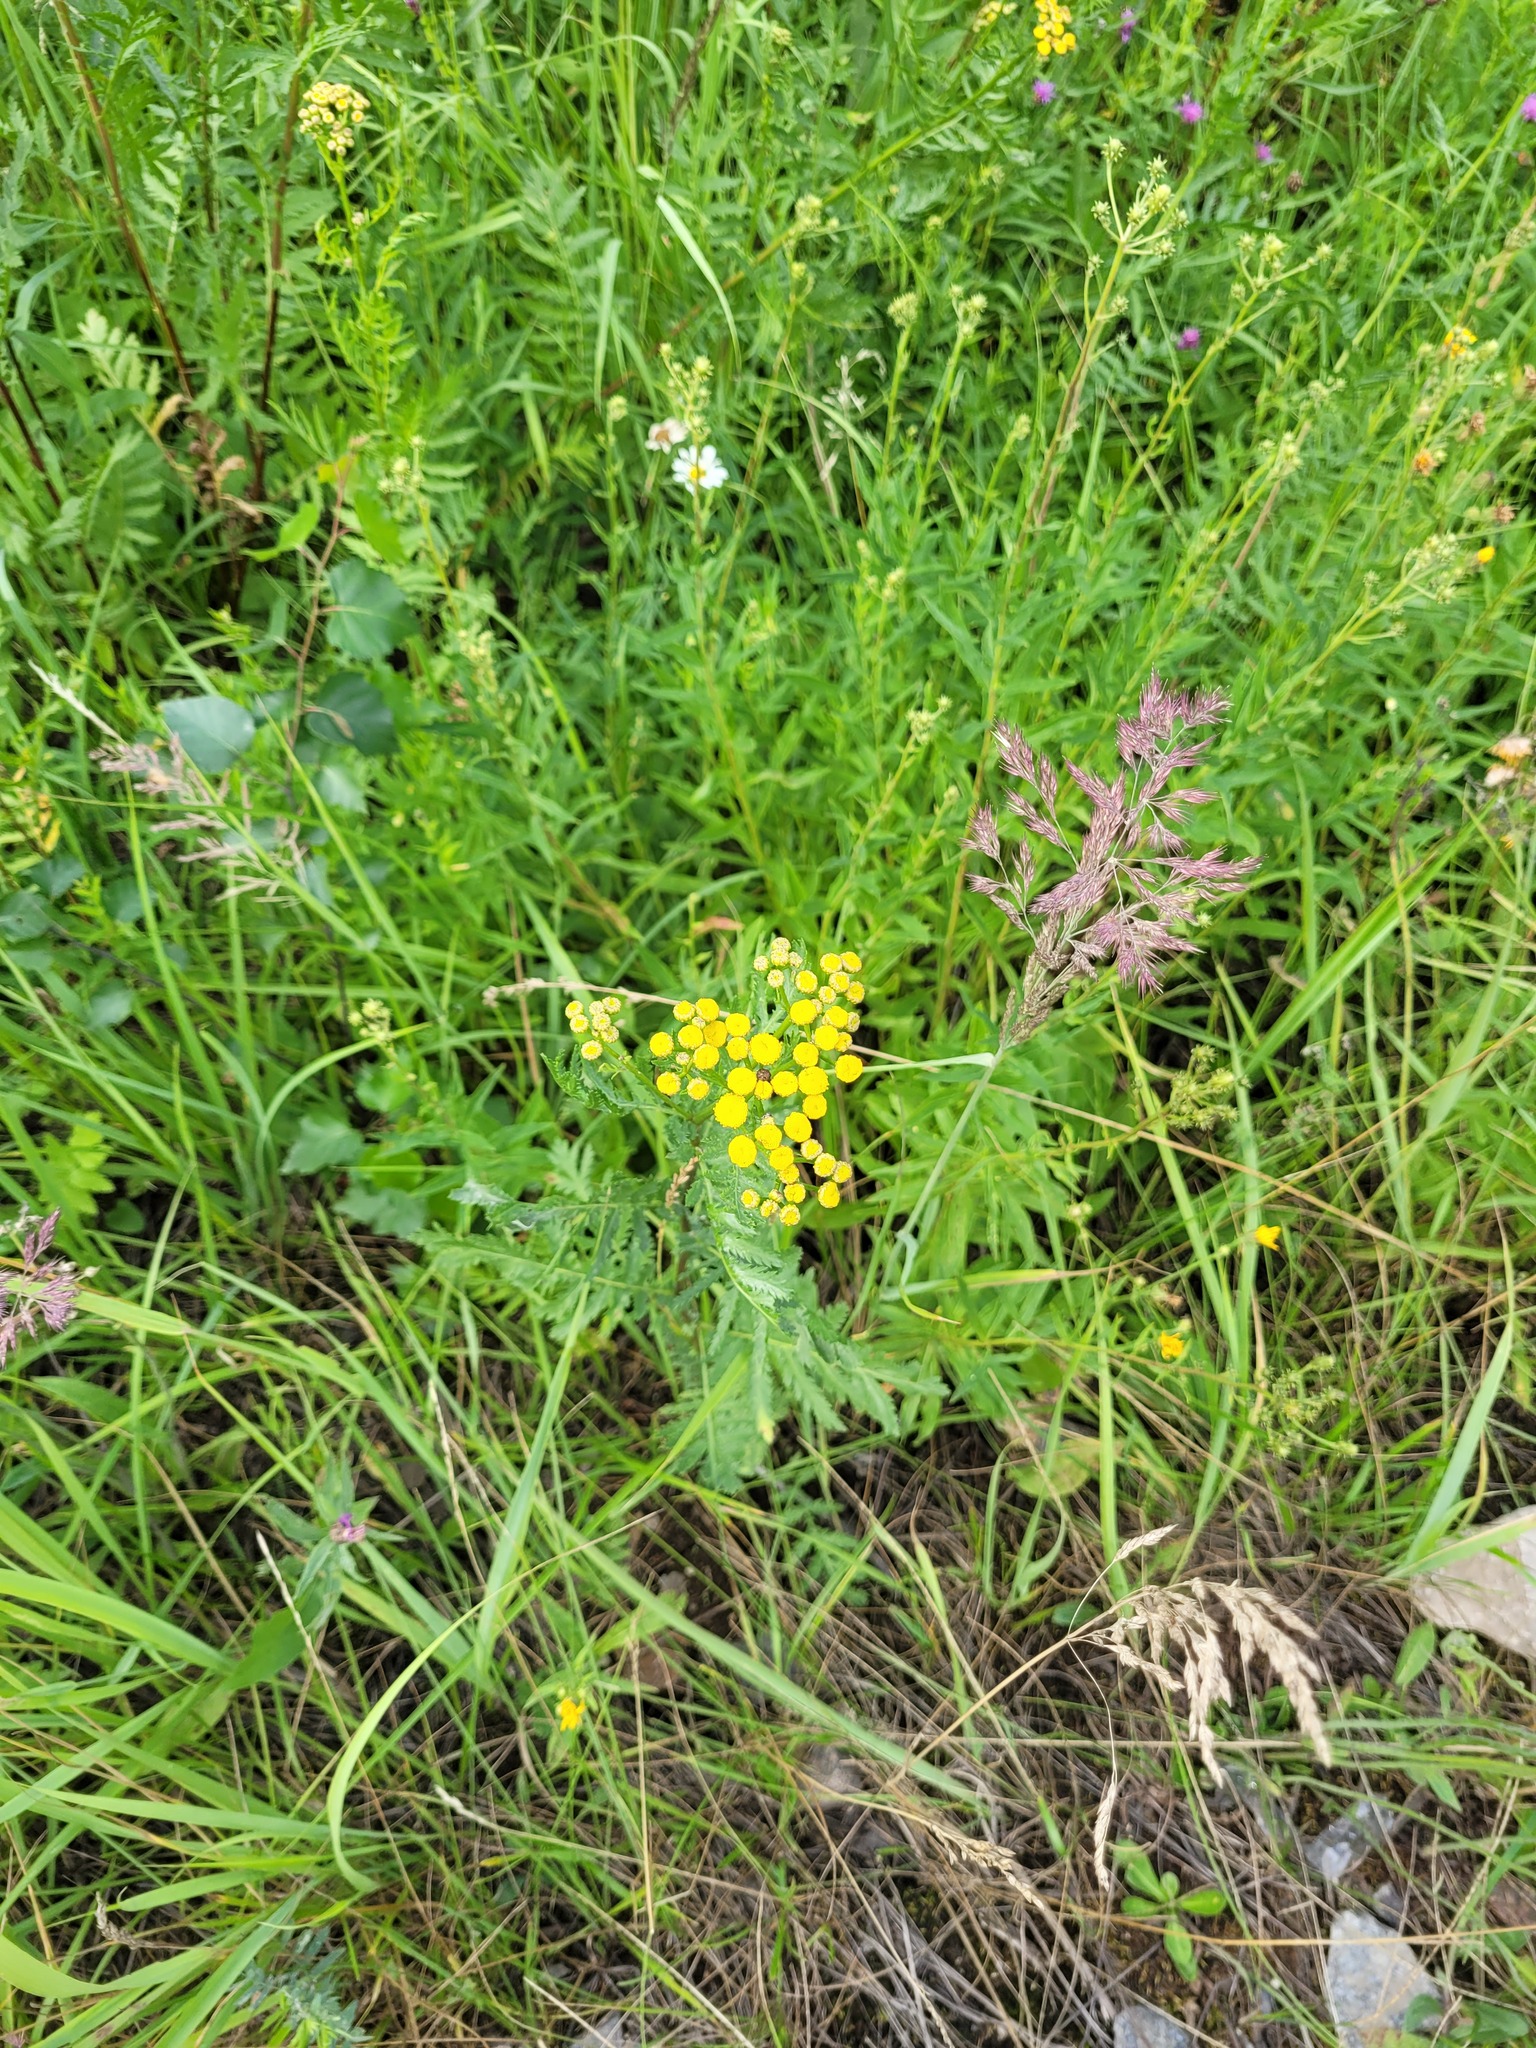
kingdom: Plantae
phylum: Tracheophyta
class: Magnoliopsida
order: Asterales
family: Asteraceae
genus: Tanacetum
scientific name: Tanacetum vulgare
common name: Common tansy
